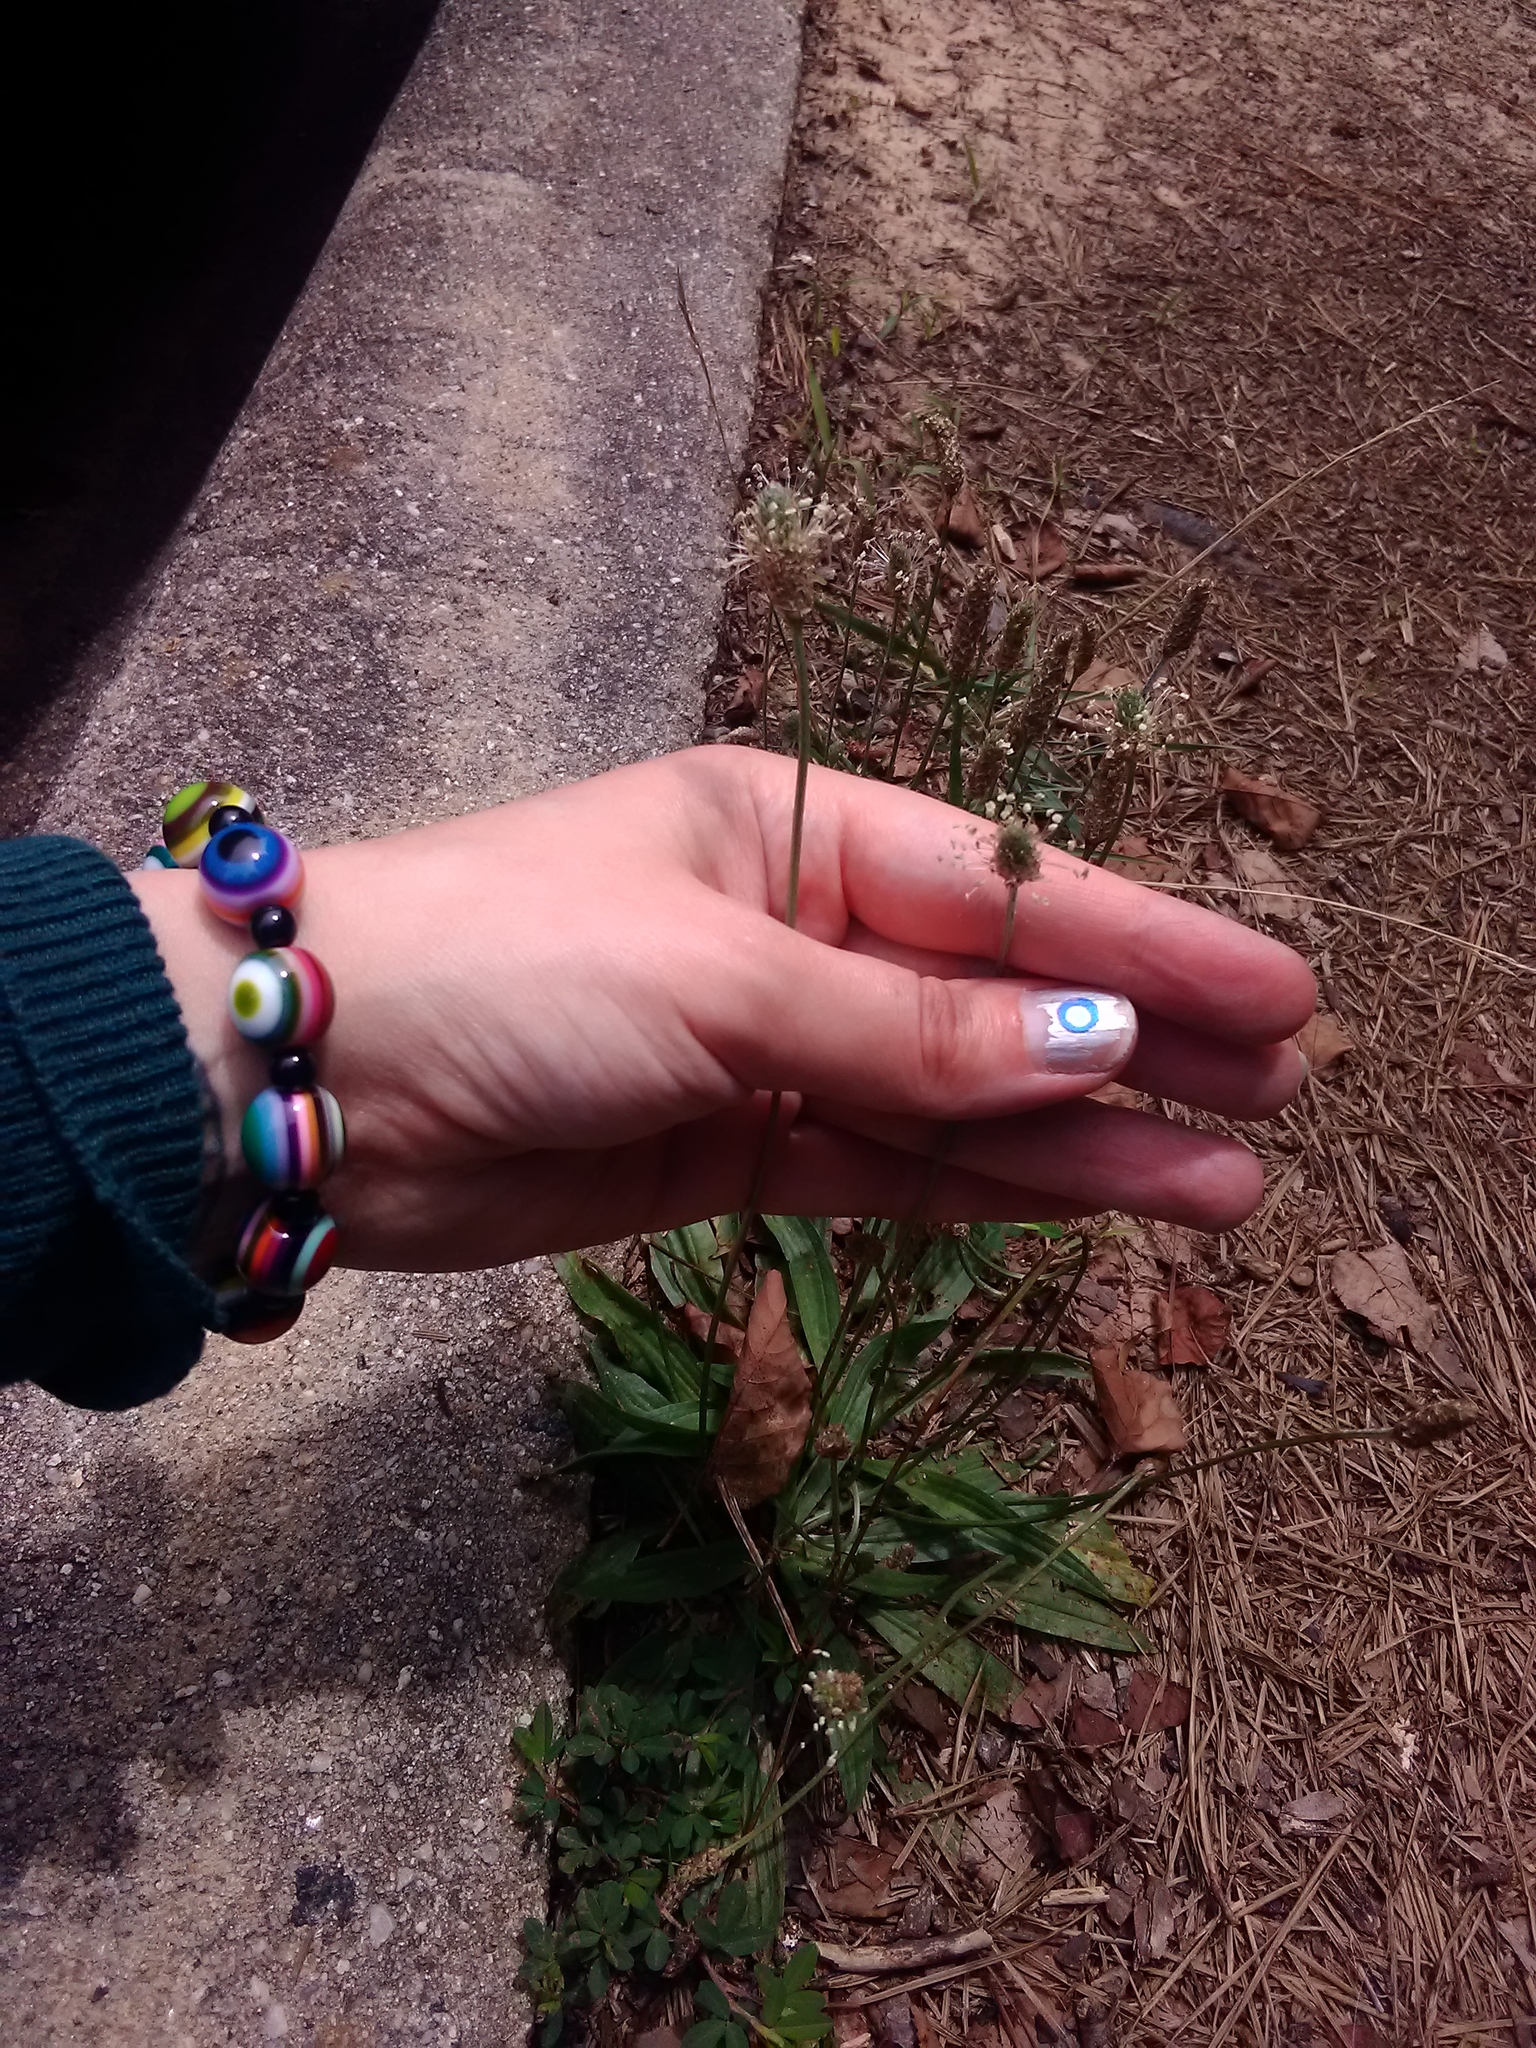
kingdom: Plantae
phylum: Tracheophyta
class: Magnoliopsida
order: Lamiales
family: Plantaginaceae
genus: Plantago
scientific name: Plantago lanceolata
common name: Ribwort plantain
